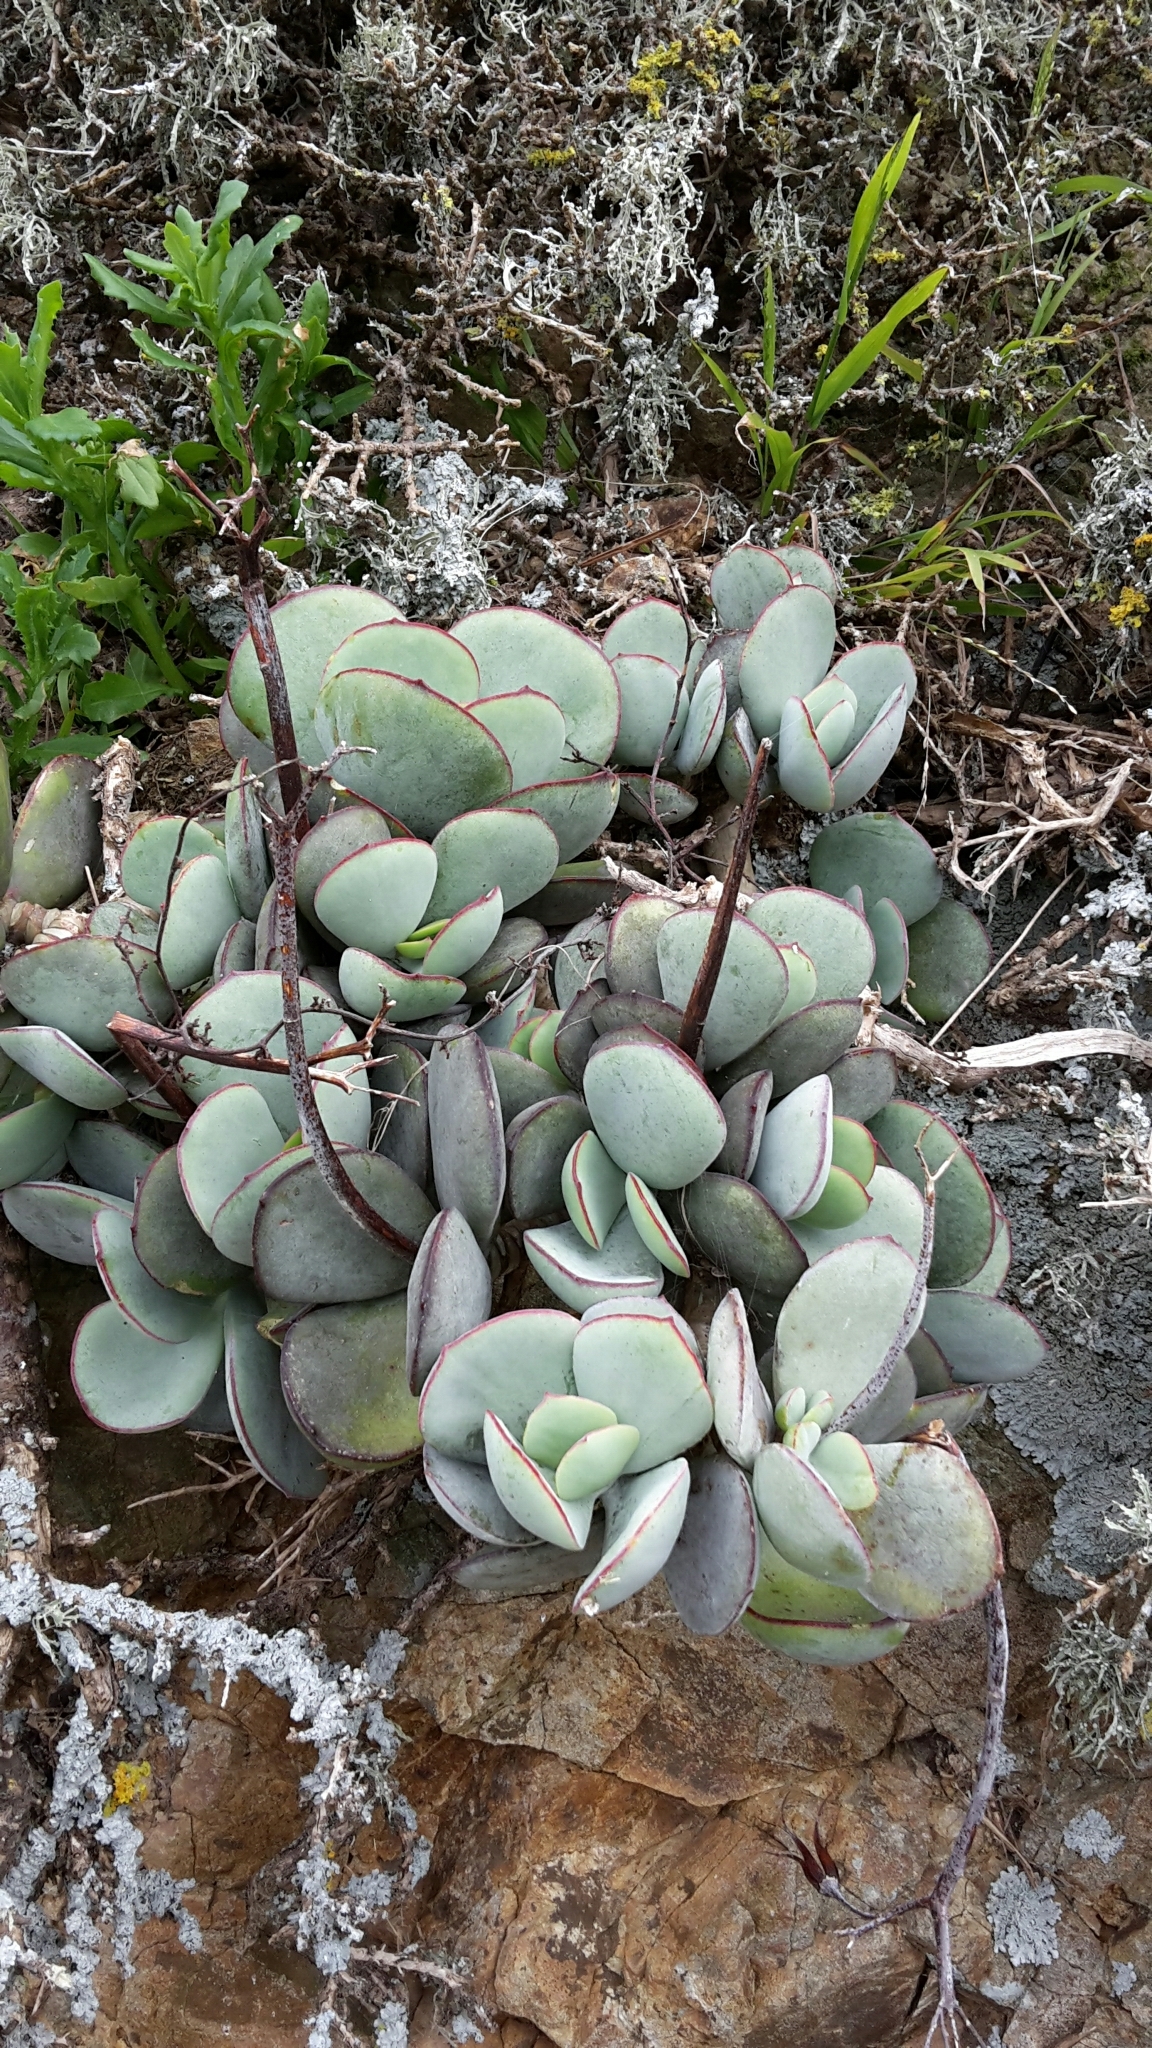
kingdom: Plantae
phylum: Tracheophyta
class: Magnoliopsida
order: Saxifragales
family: Crassulaceae
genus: Cotyledon
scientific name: Cotyledon orbiculata
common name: Pig's ear
